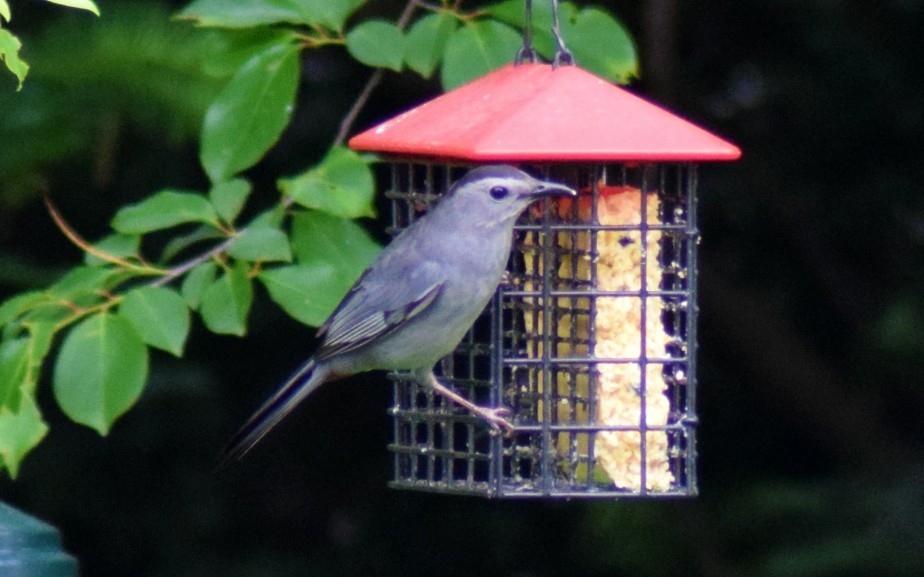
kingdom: Animalia
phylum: Chordata
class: Aves
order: Passeriformes
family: Mimidae
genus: Dumetella
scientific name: Dumetella carolinensis
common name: Gray catbird
